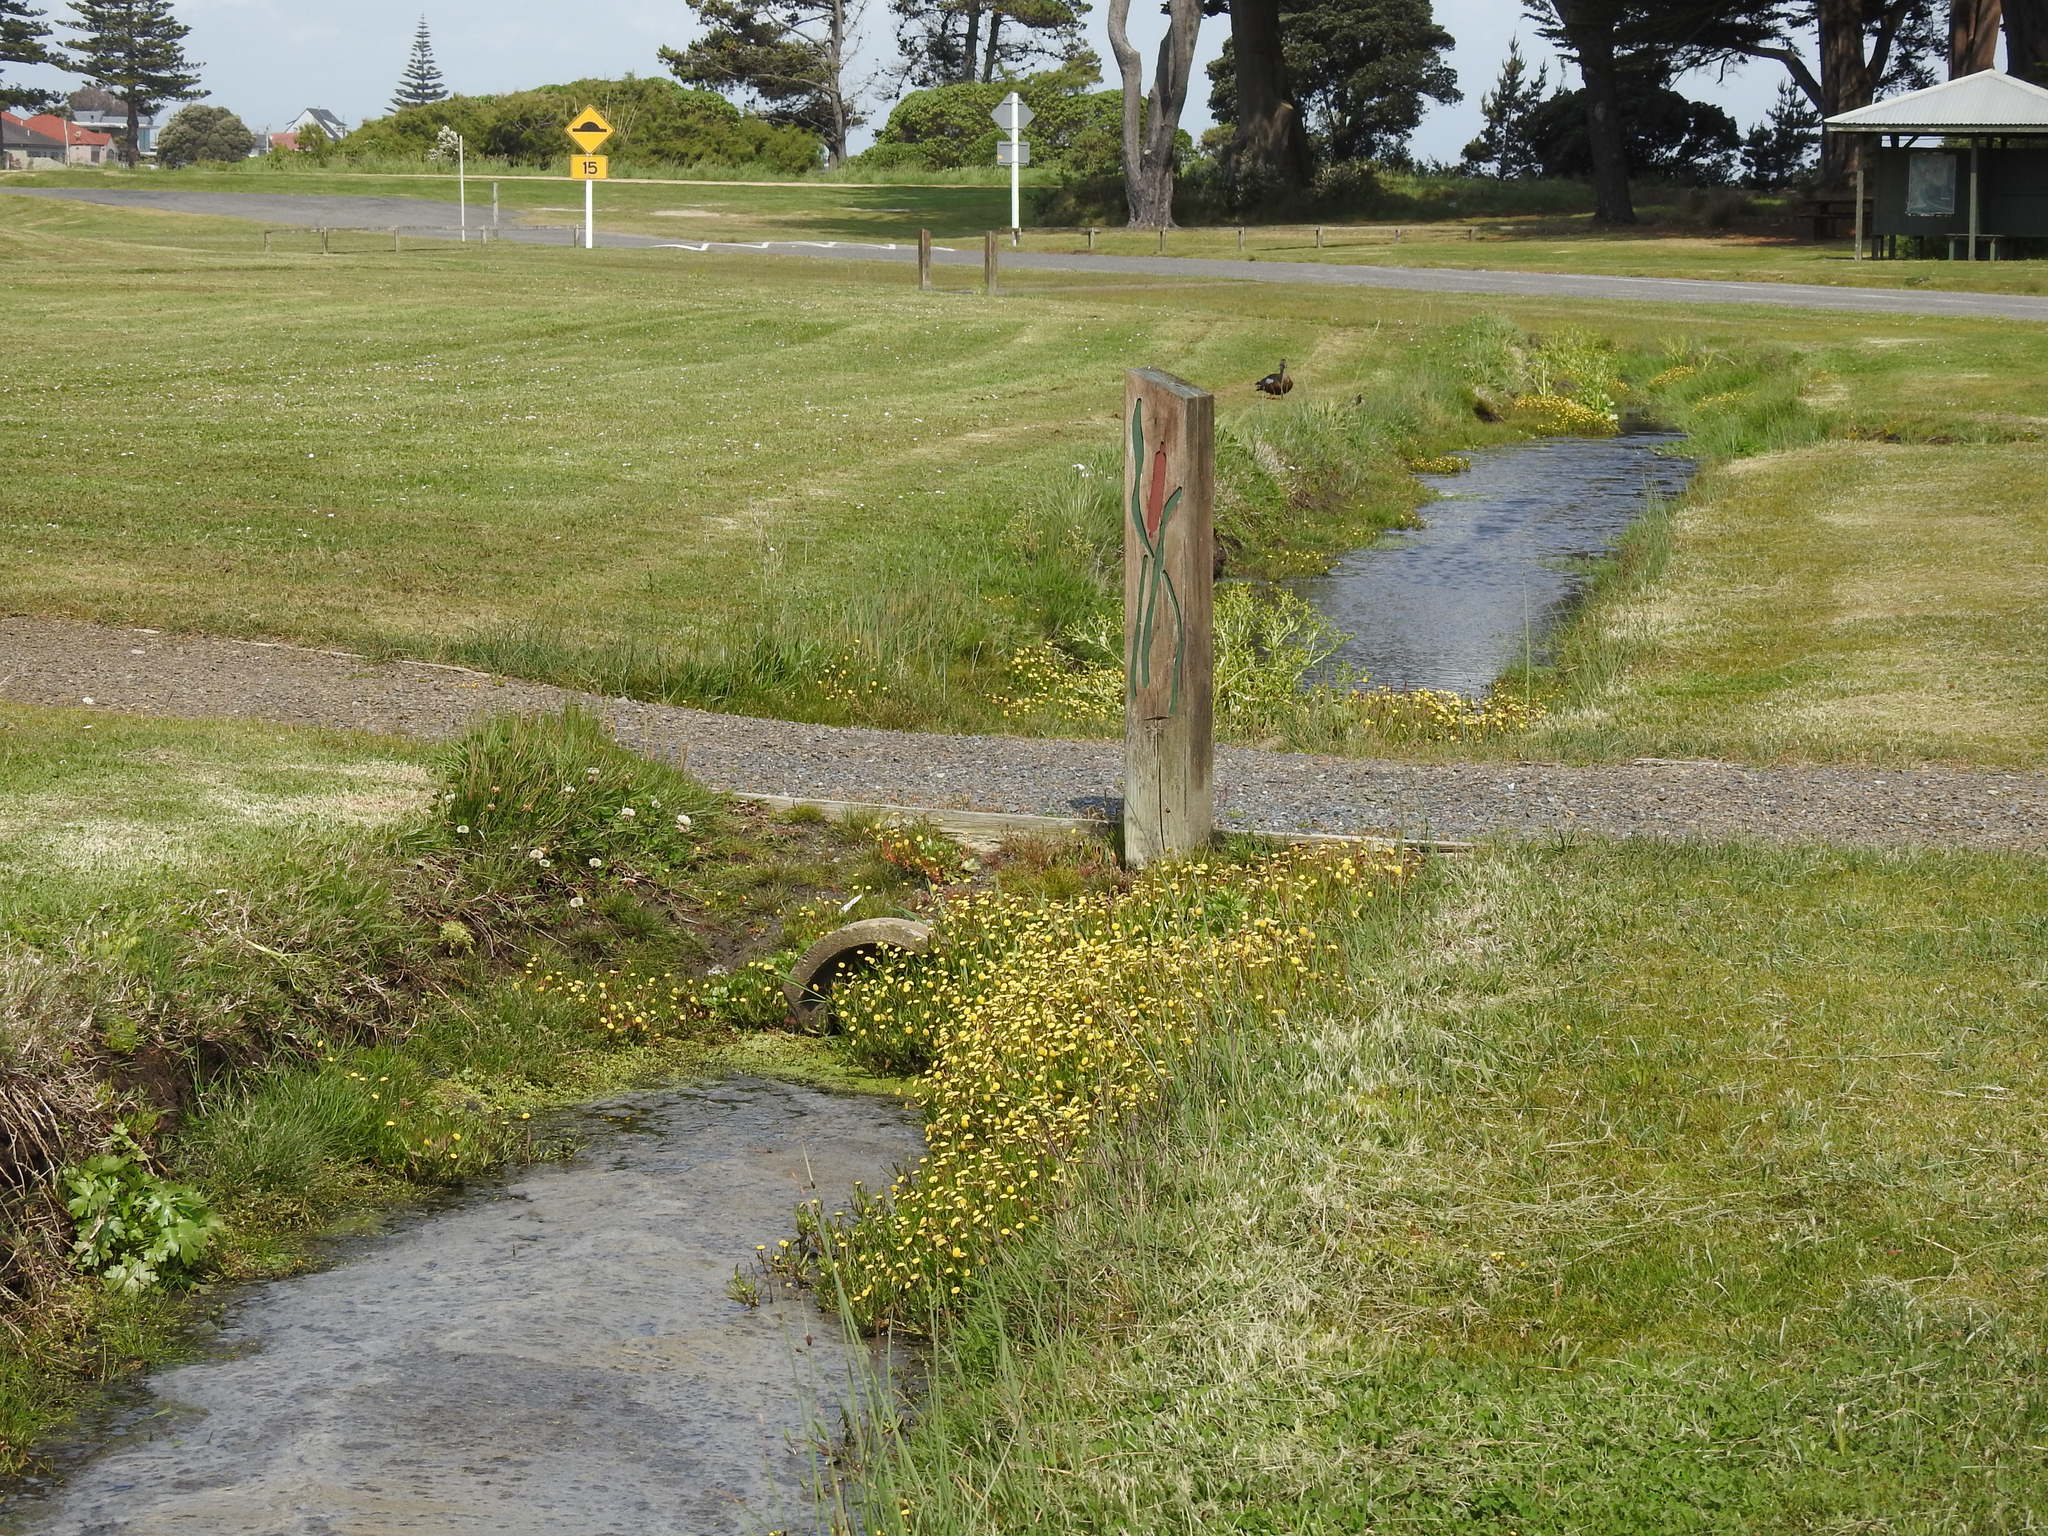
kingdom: Plantae
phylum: Tracheophyta
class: Magnoliopsida
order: Asterales
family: Asteraceae
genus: Cotula
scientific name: Cotula coronopifolia
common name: Buttonweed
